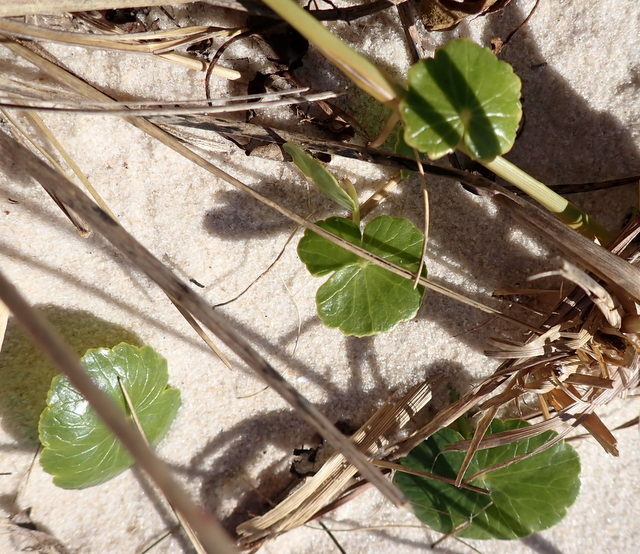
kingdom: Plantae
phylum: Tracheophyta
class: Magnoliopsida
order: Apiales
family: Araliaceae
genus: Hydrocotyle
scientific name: Hydrocotyle bonariensis
